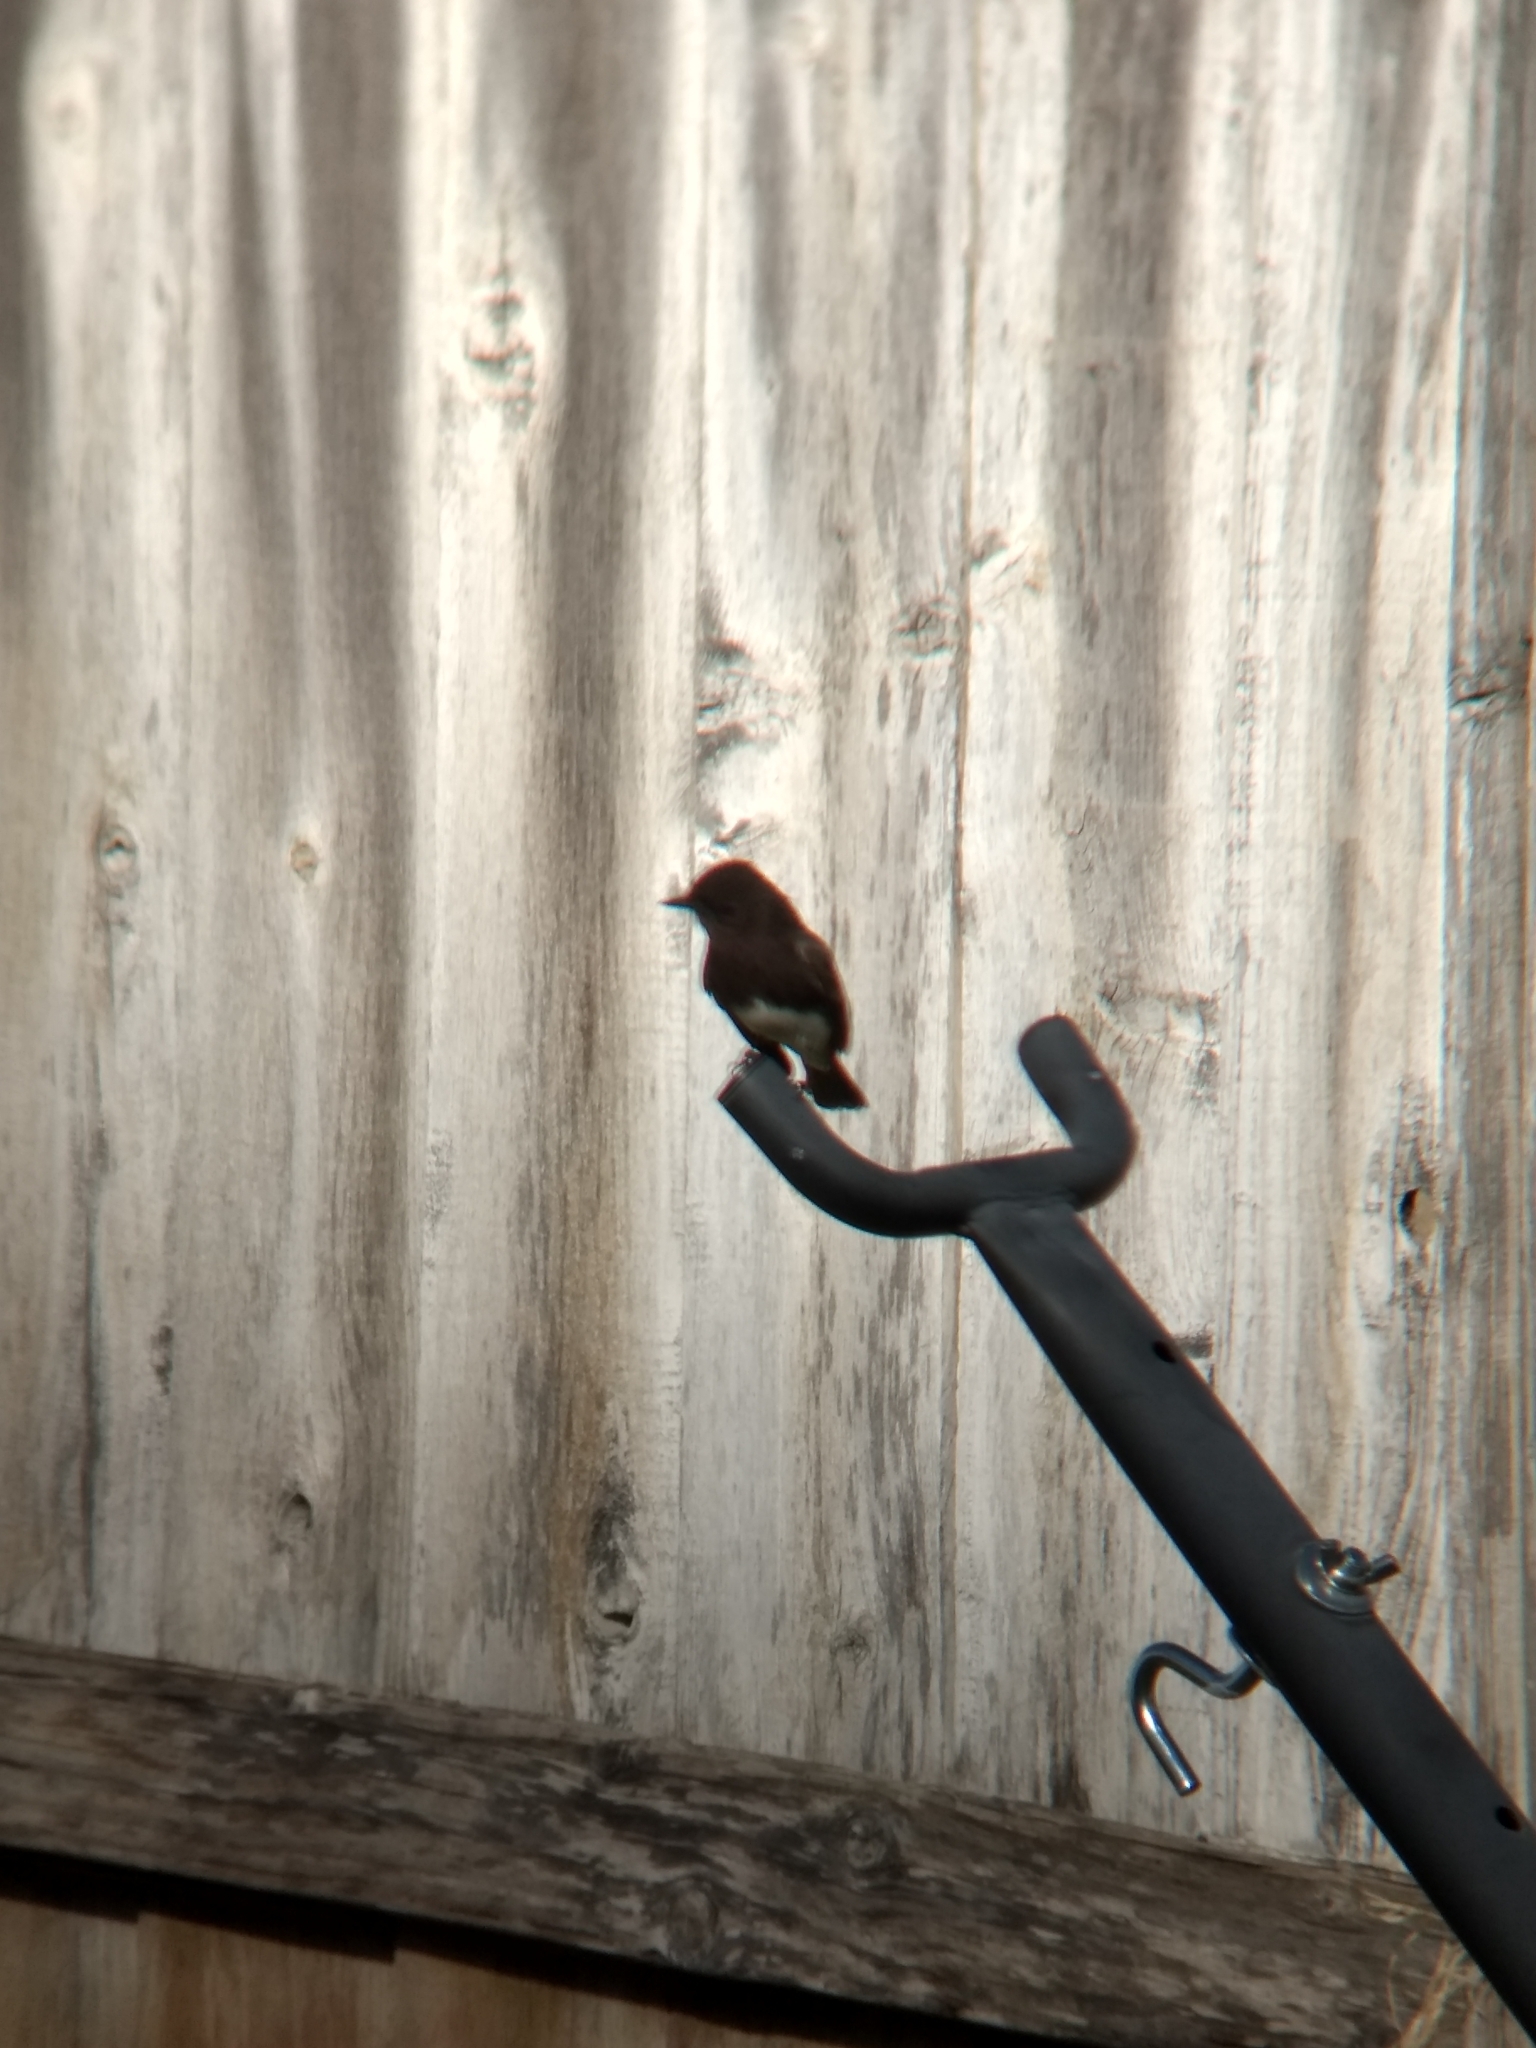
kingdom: Animalia
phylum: Chordata
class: Aves
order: Passeriformes
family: Tyrannidae
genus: Sayornis
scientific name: Sayornis nigricans
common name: Black phoebe
